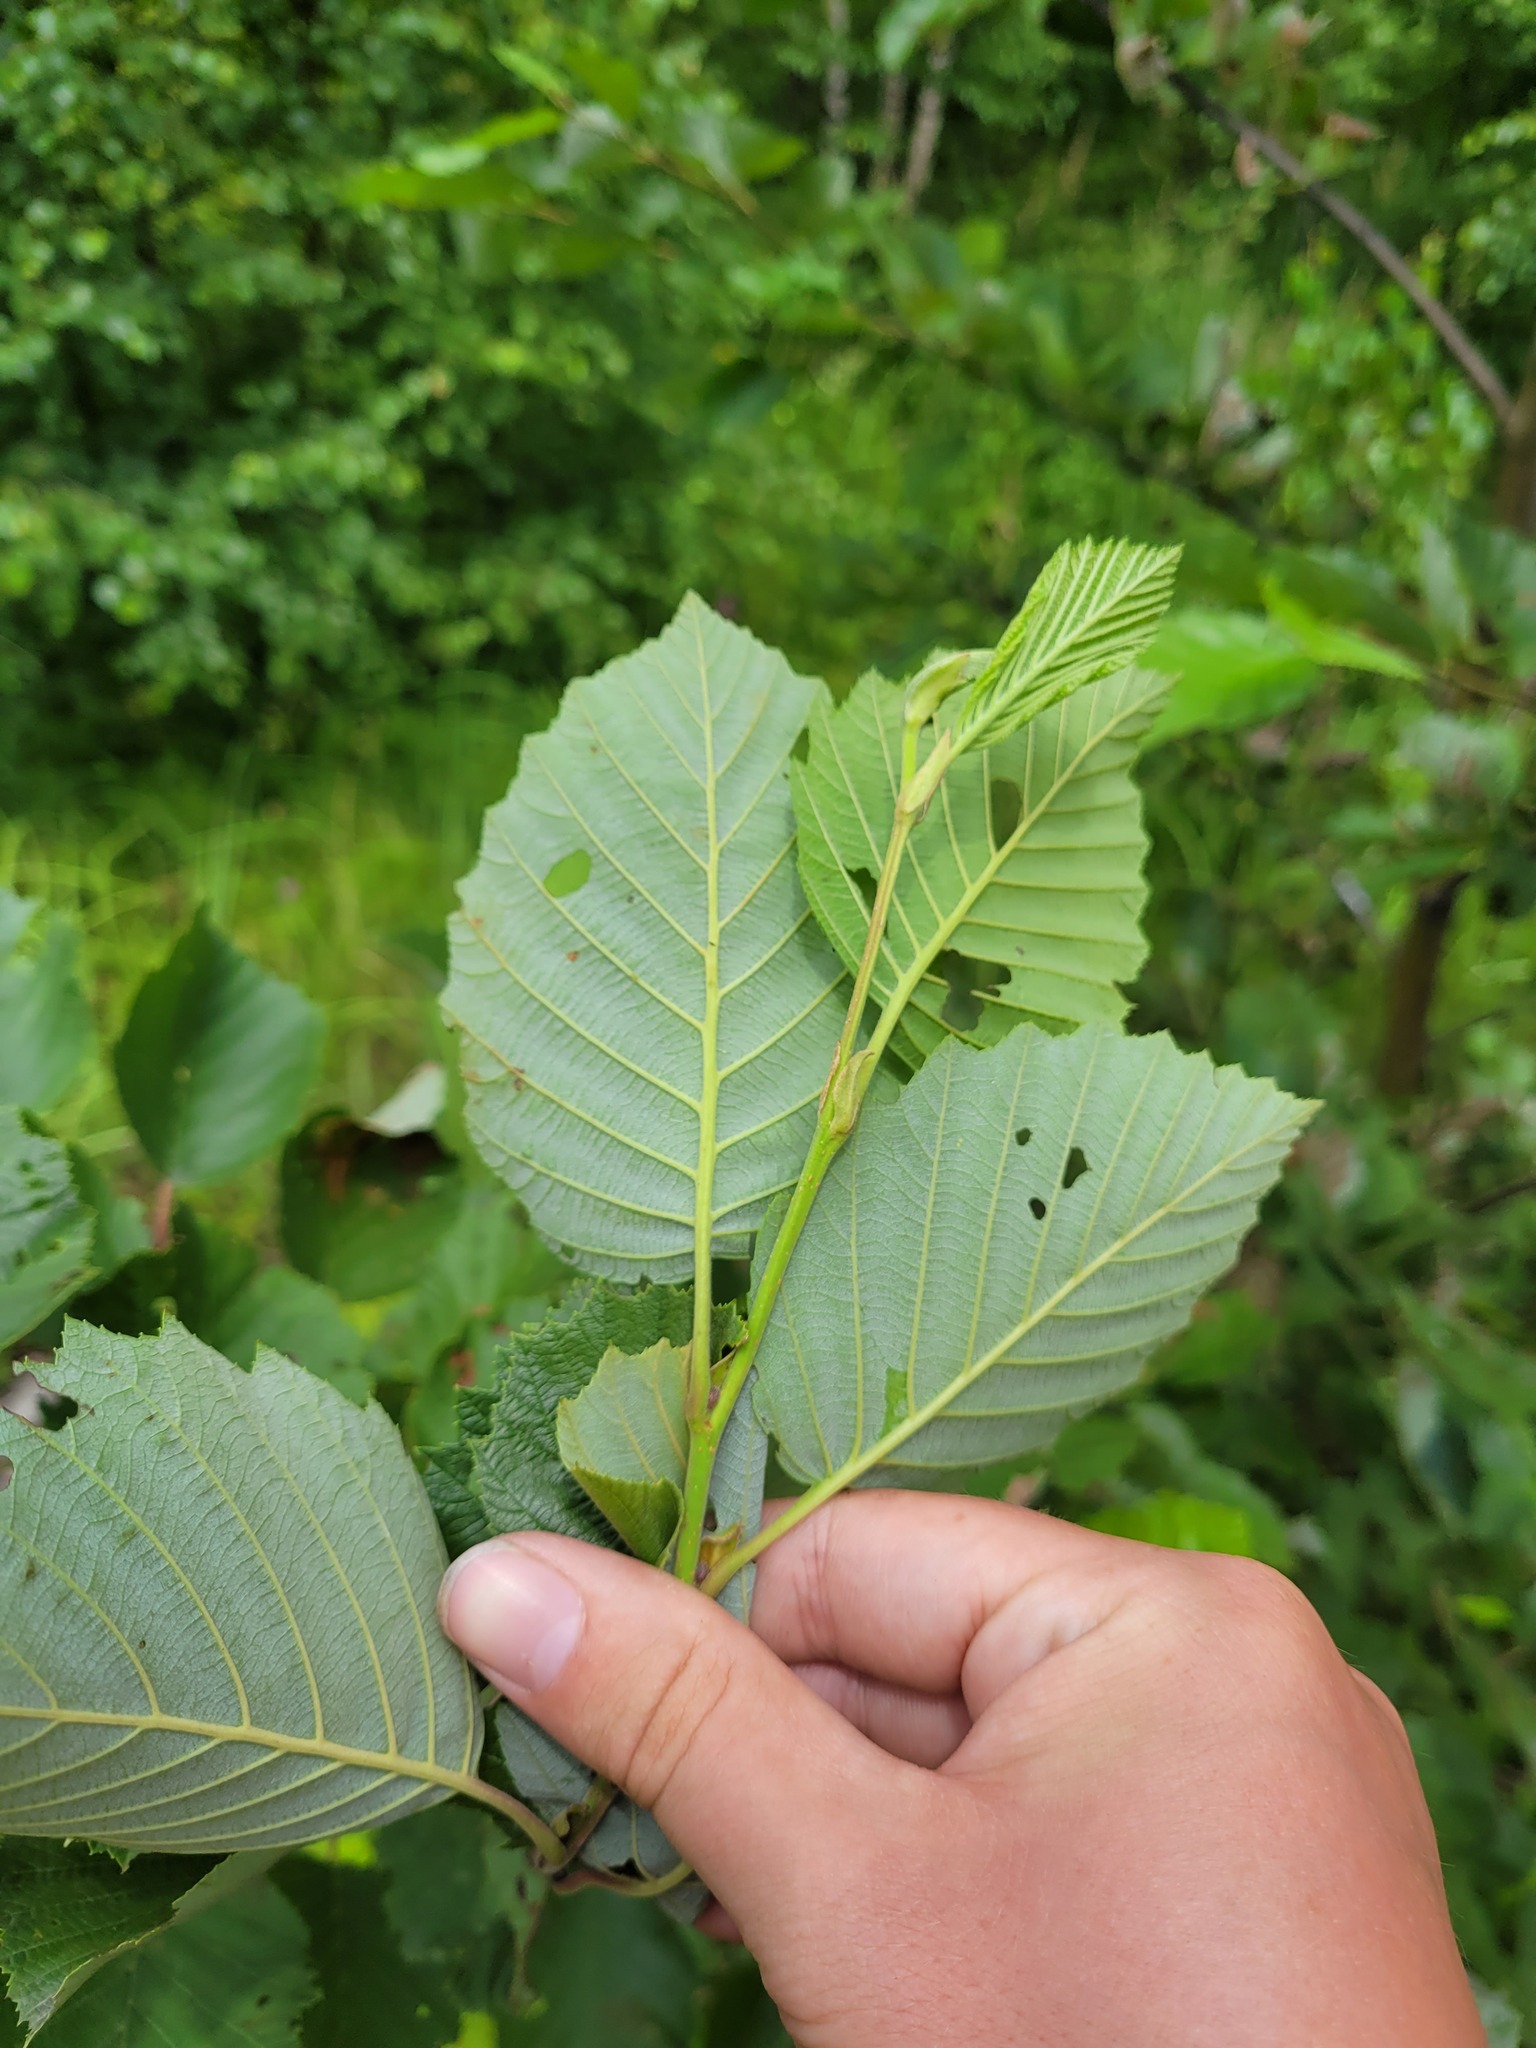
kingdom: Plantae
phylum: Tracheophyta
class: Magnoliopsida
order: Fagales
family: Betulaceae
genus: Alnus
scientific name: Alnus incana
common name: Grey alder
